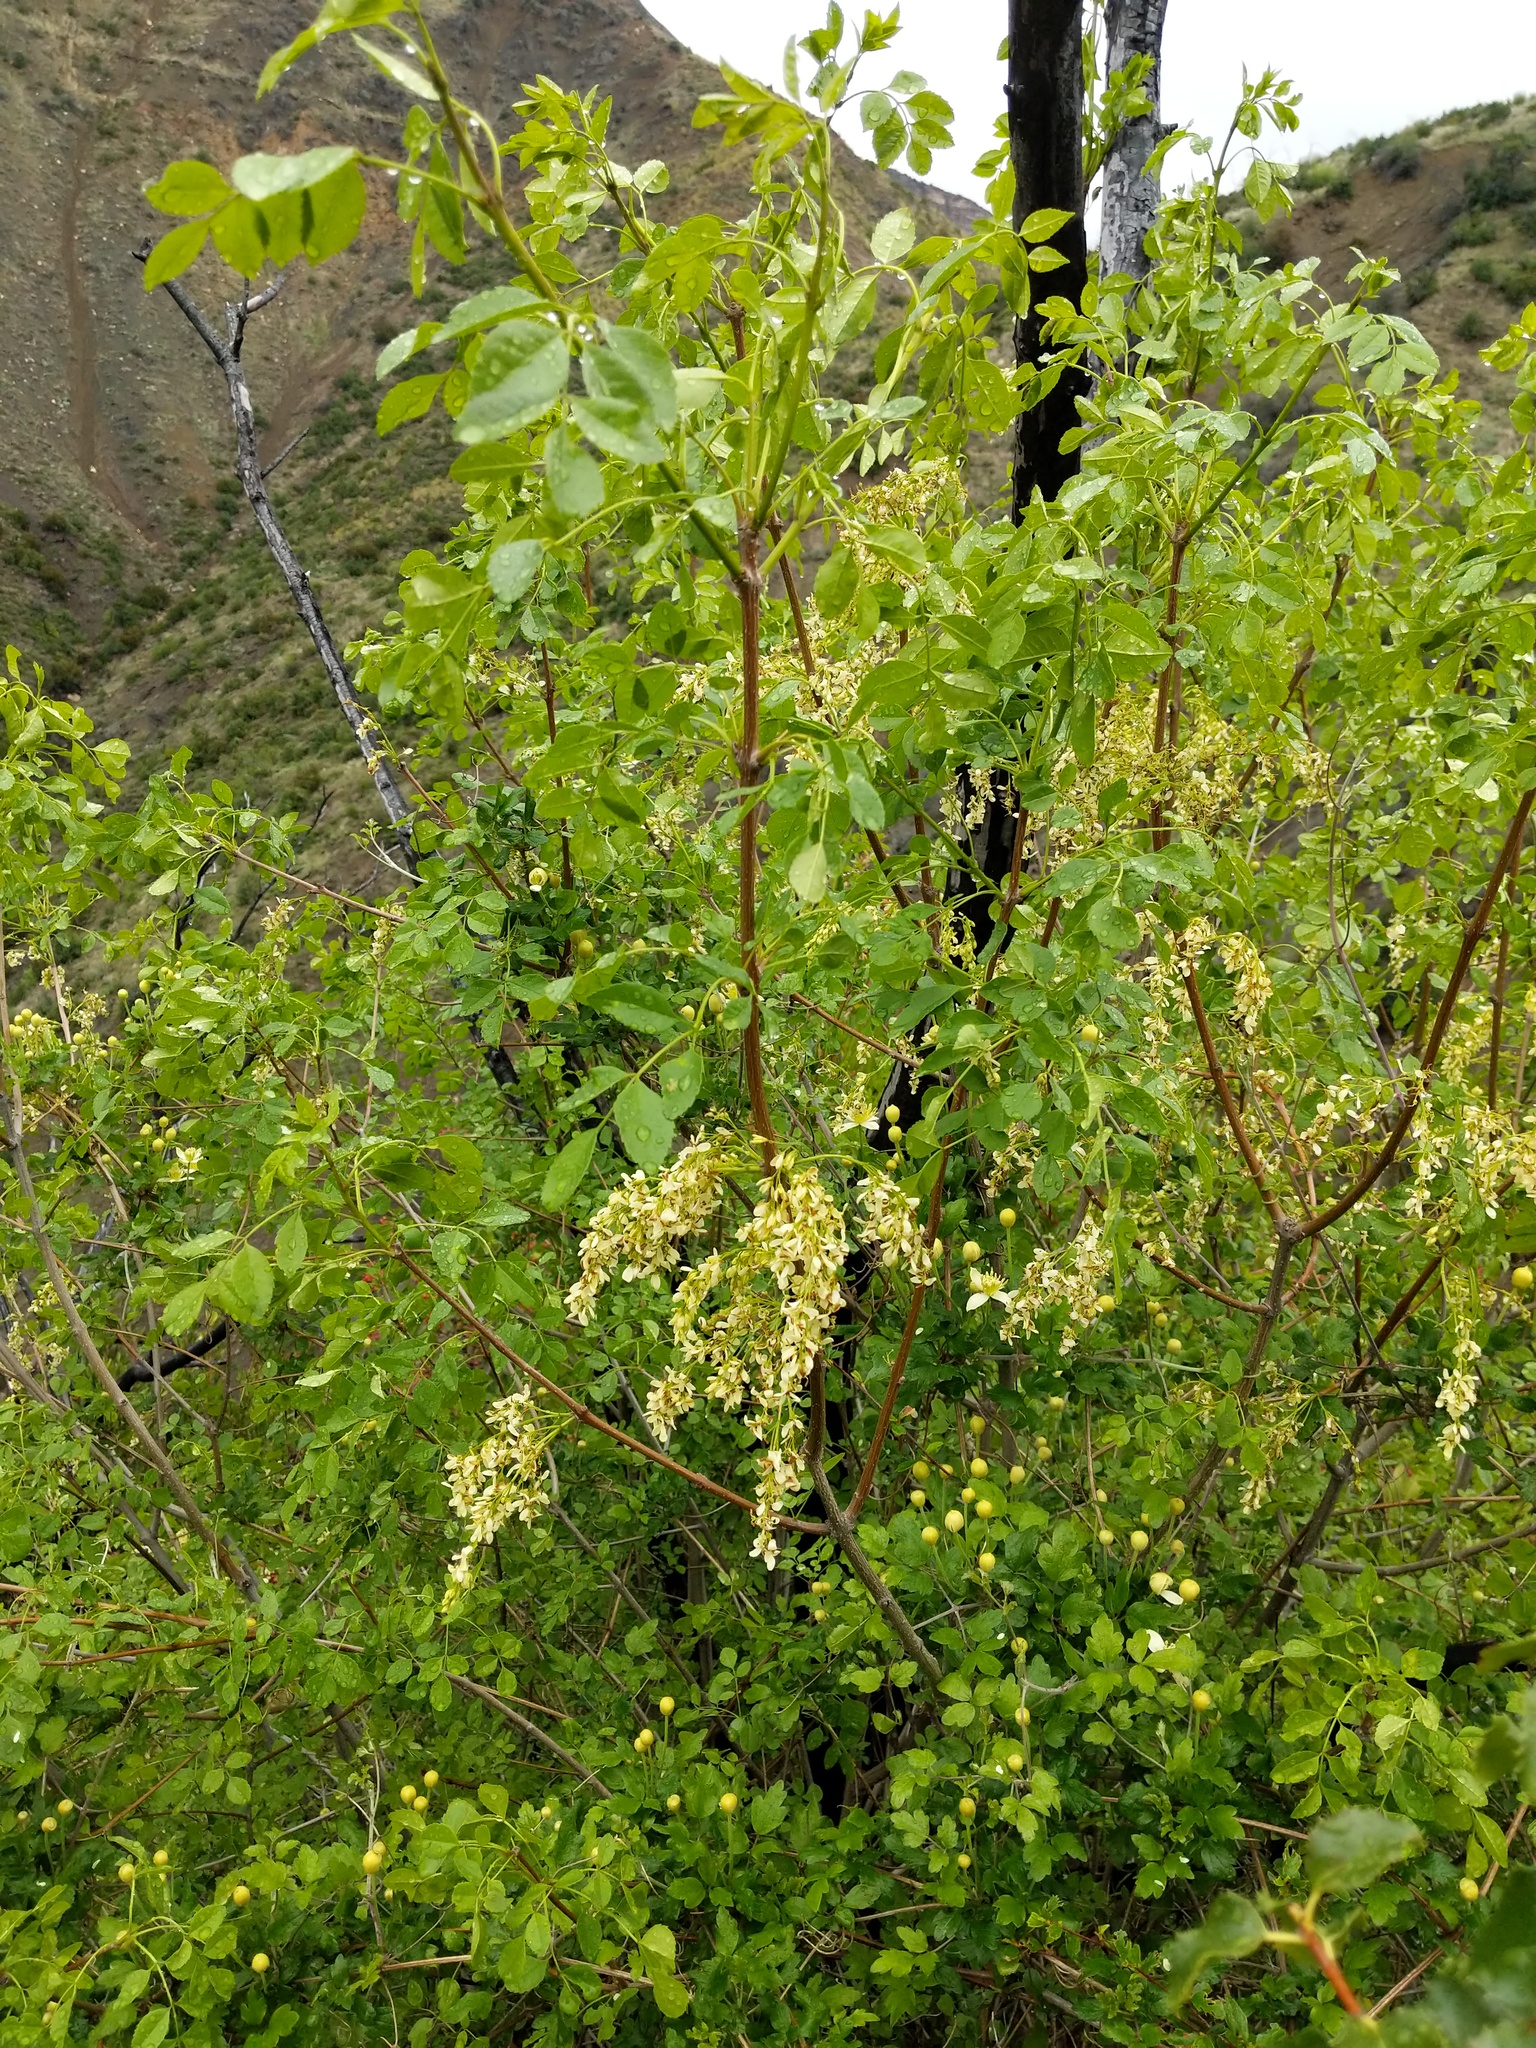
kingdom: Plantae
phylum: Tracheophyta
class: Magnoliopsida
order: Lamiales
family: Oleaceae
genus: Fraxinus
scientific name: Fraxinus dipetala
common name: California ash
